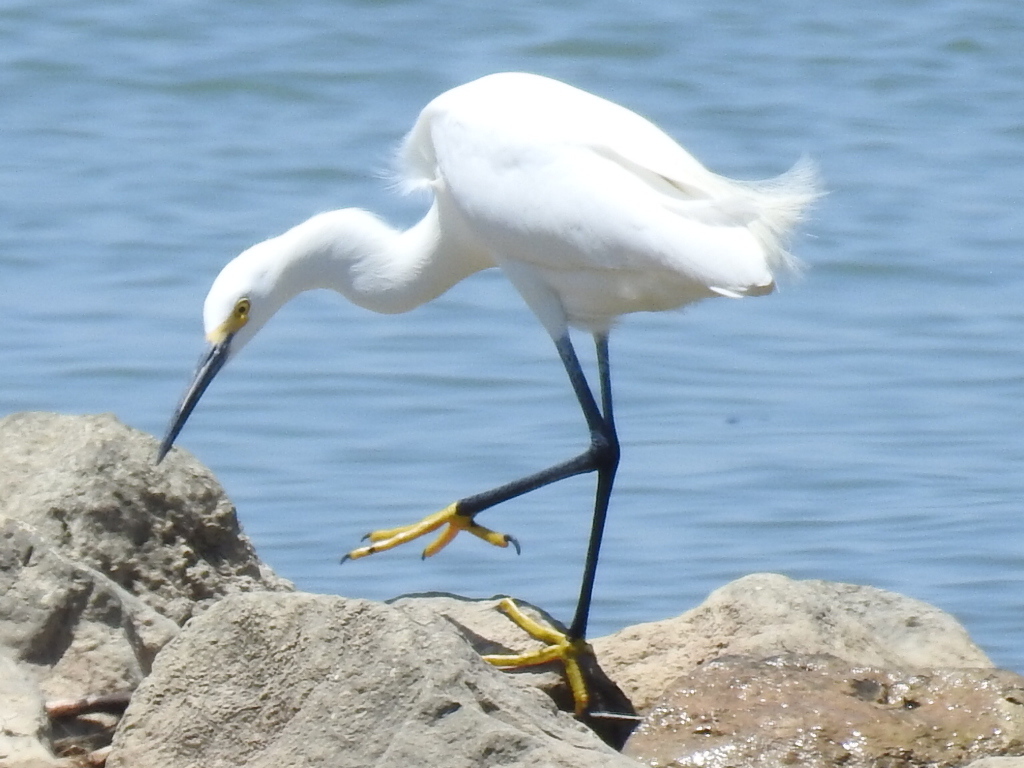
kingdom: Animalia
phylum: Chordata
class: Aves
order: Pelecaniformes
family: Ardeidae
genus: Egretta
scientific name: Egretta thula
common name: Snowy egret
